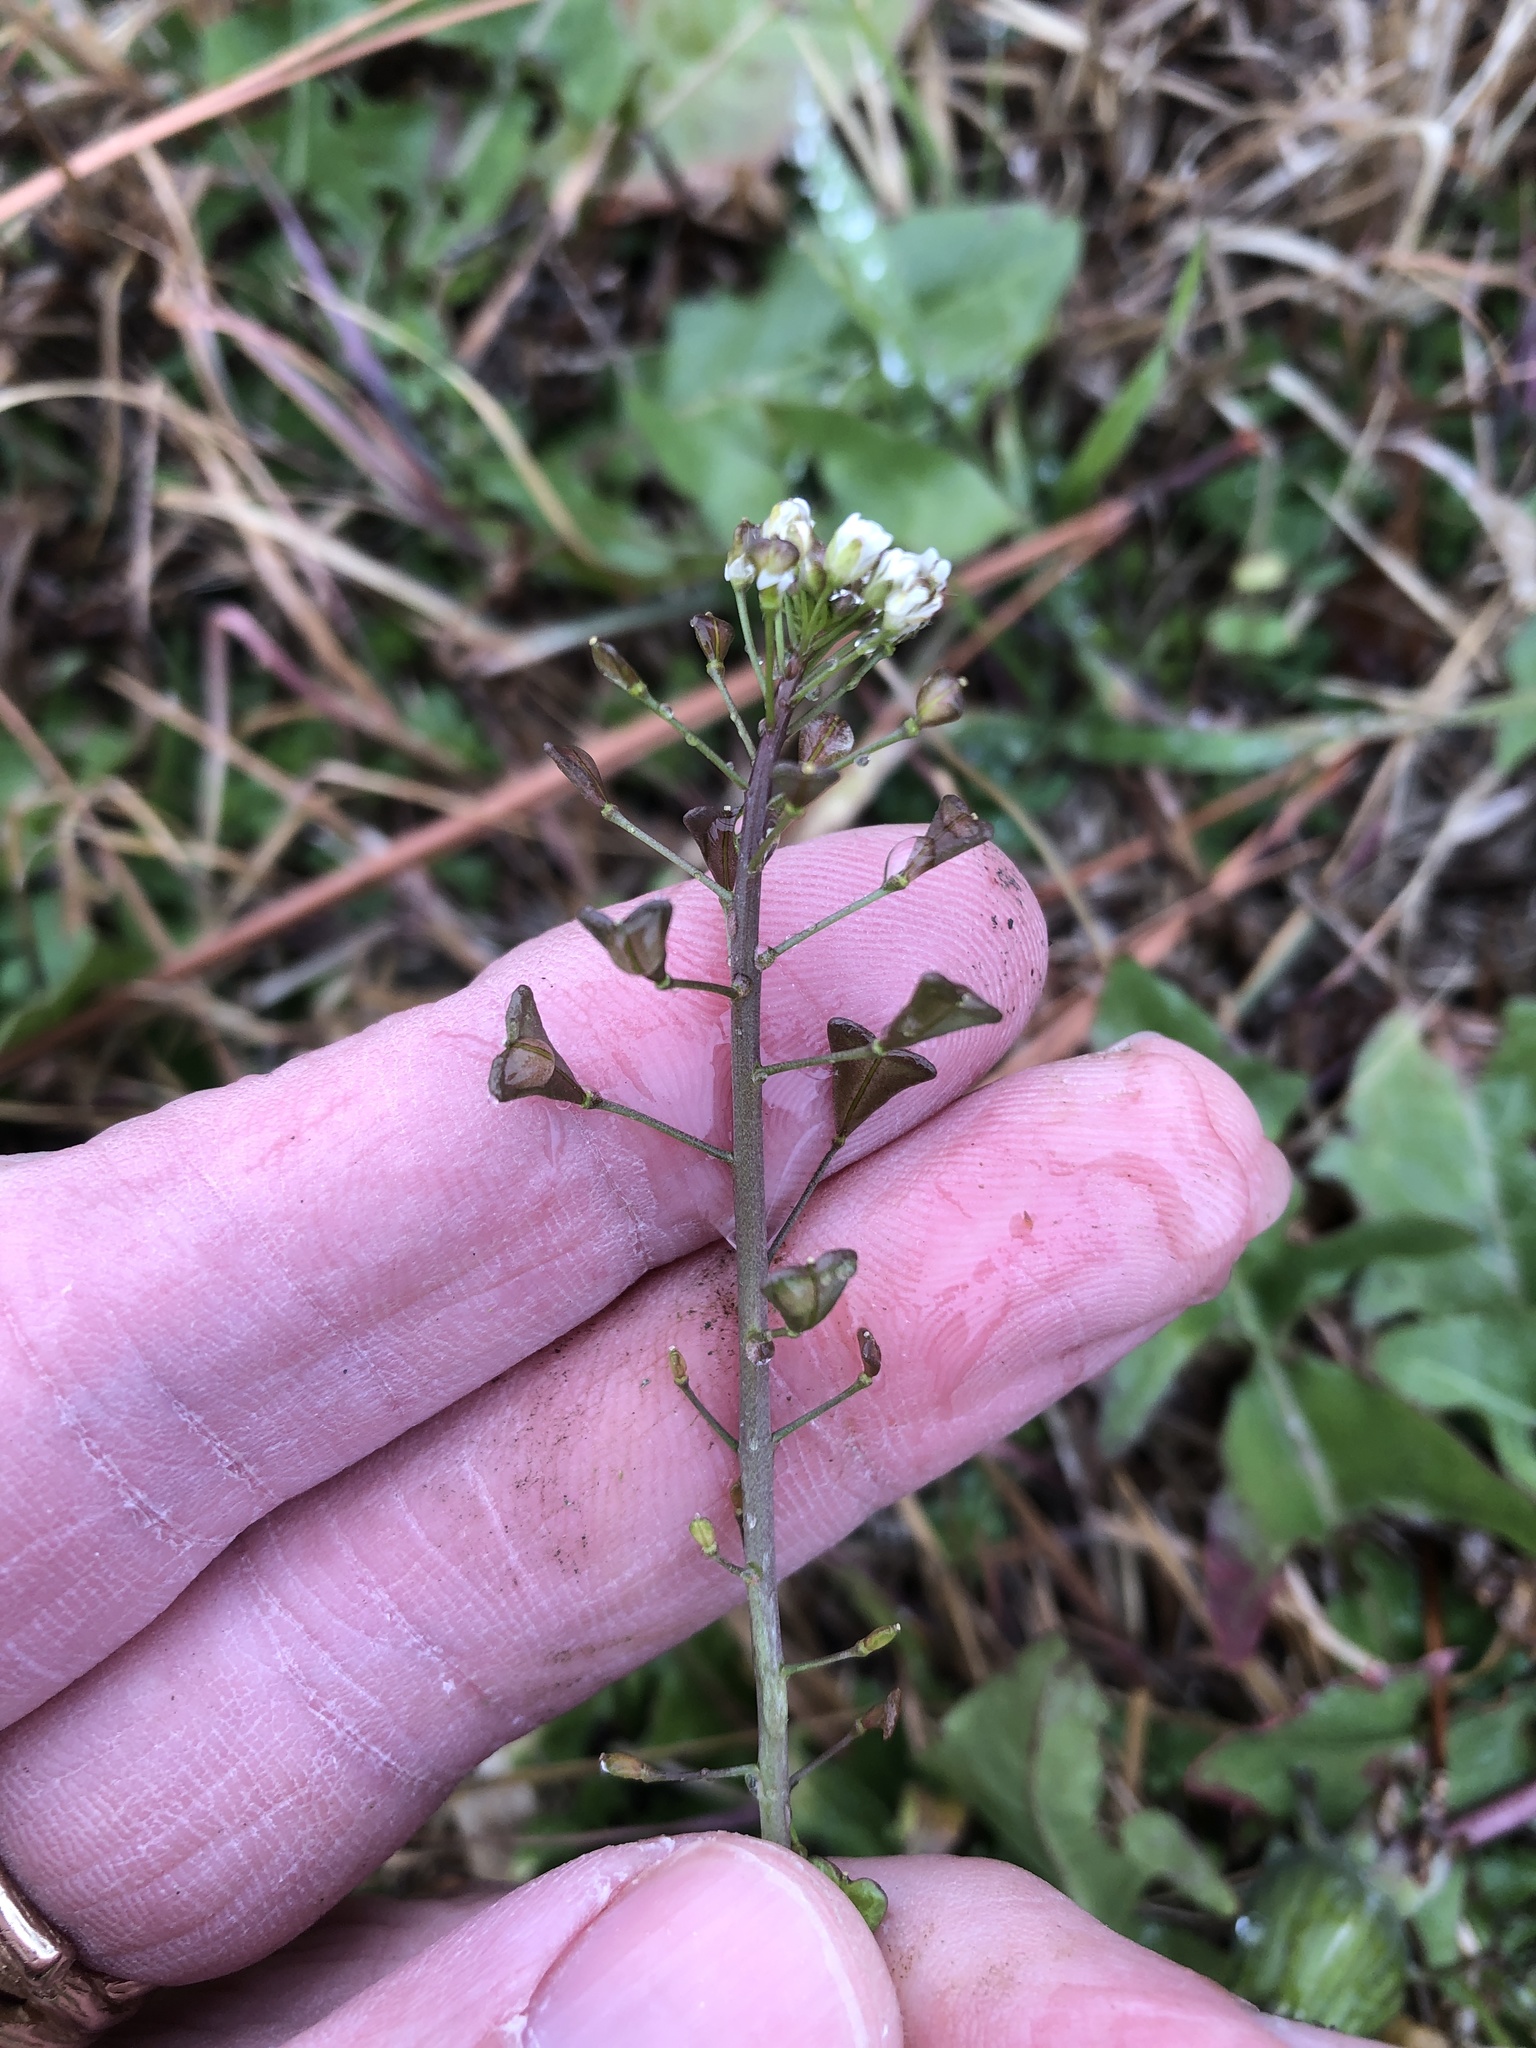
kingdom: Plantae
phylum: Tracheophyta
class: Magnoliopsida
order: Brassicales
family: Brassicaceae
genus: Capsella
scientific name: Capsella bursa-pastoris
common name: Shepherd's purse
